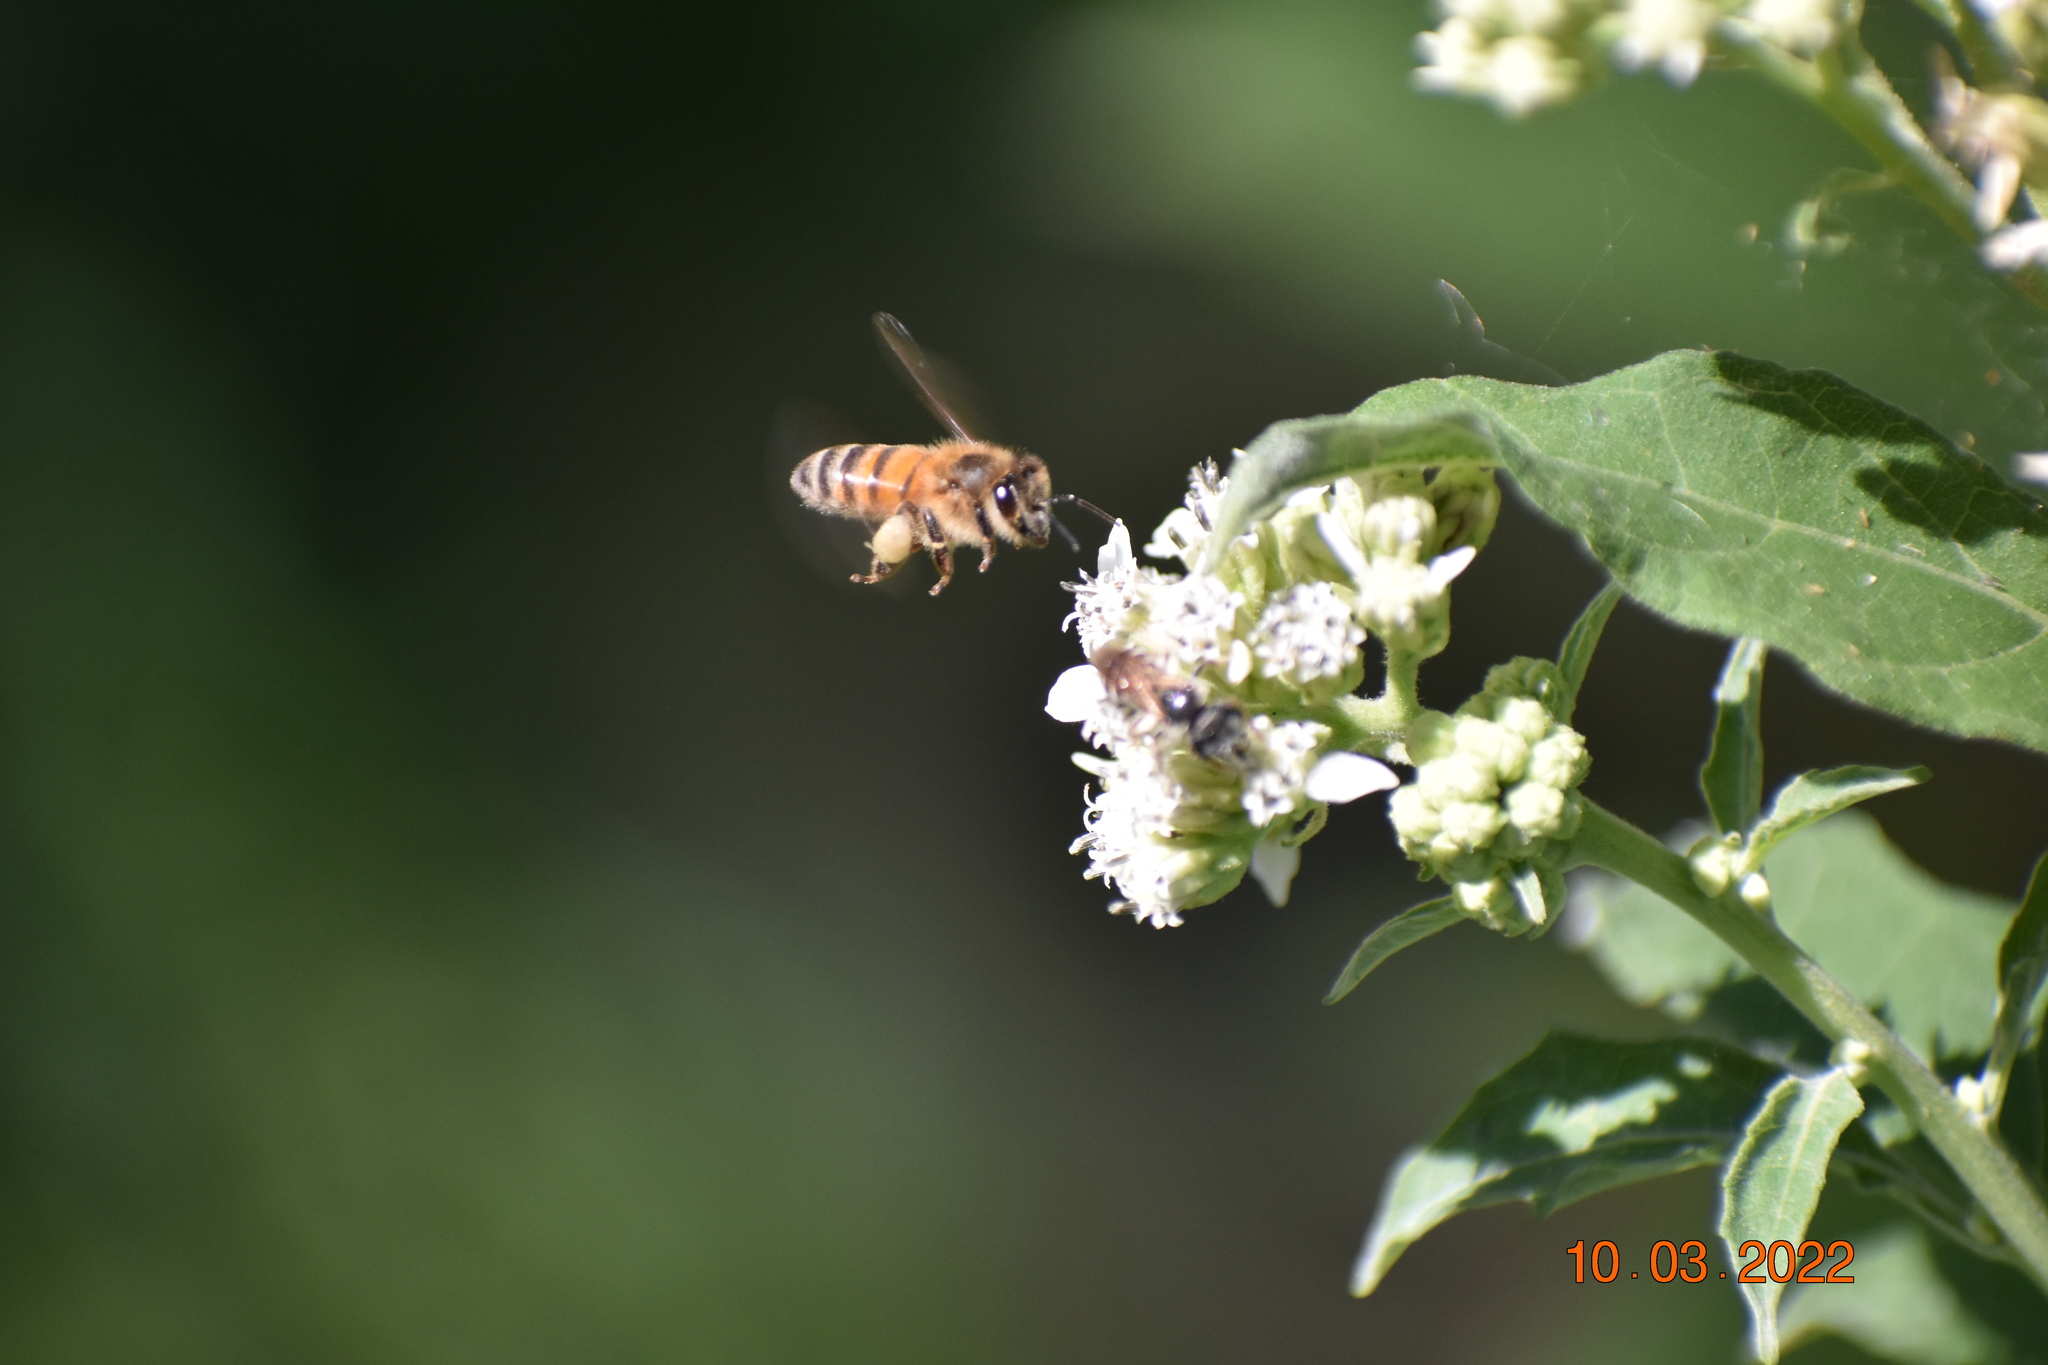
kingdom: Animalia
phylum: Arthropoda
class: Insecta
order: Hymenoptera
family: Apidae
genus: Apis
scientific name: Apis mellifera
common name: Honey bee
